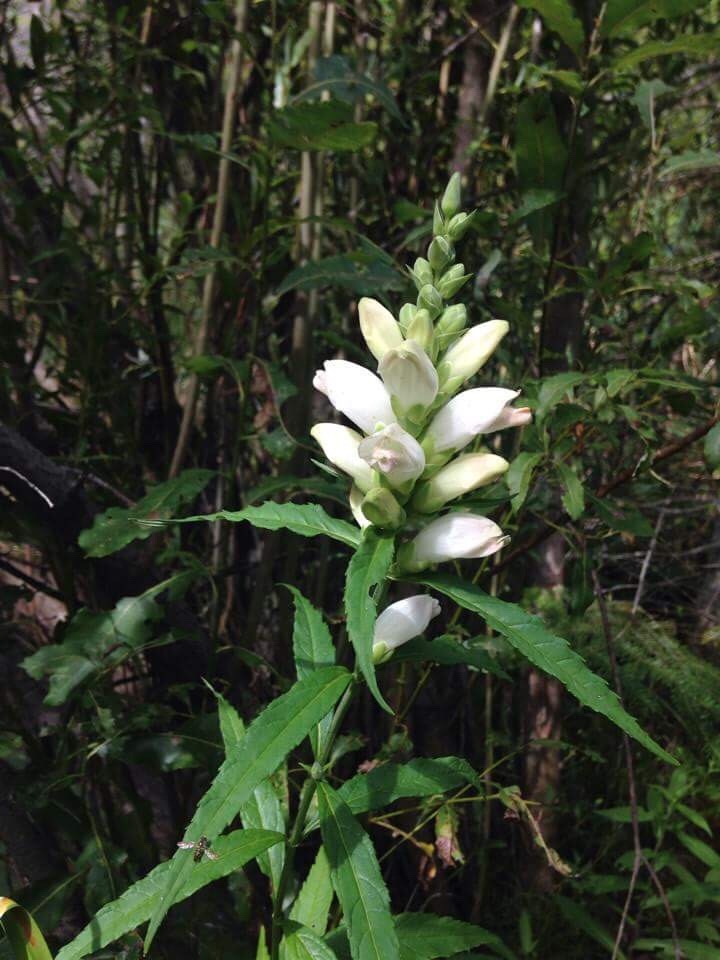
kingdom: Plantae
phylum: Tracheophyta
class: Magnoliopsida
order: Lamiales
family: Plantaginaceae
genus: Chelone
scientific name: Chelone glabra
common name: Snakehead
